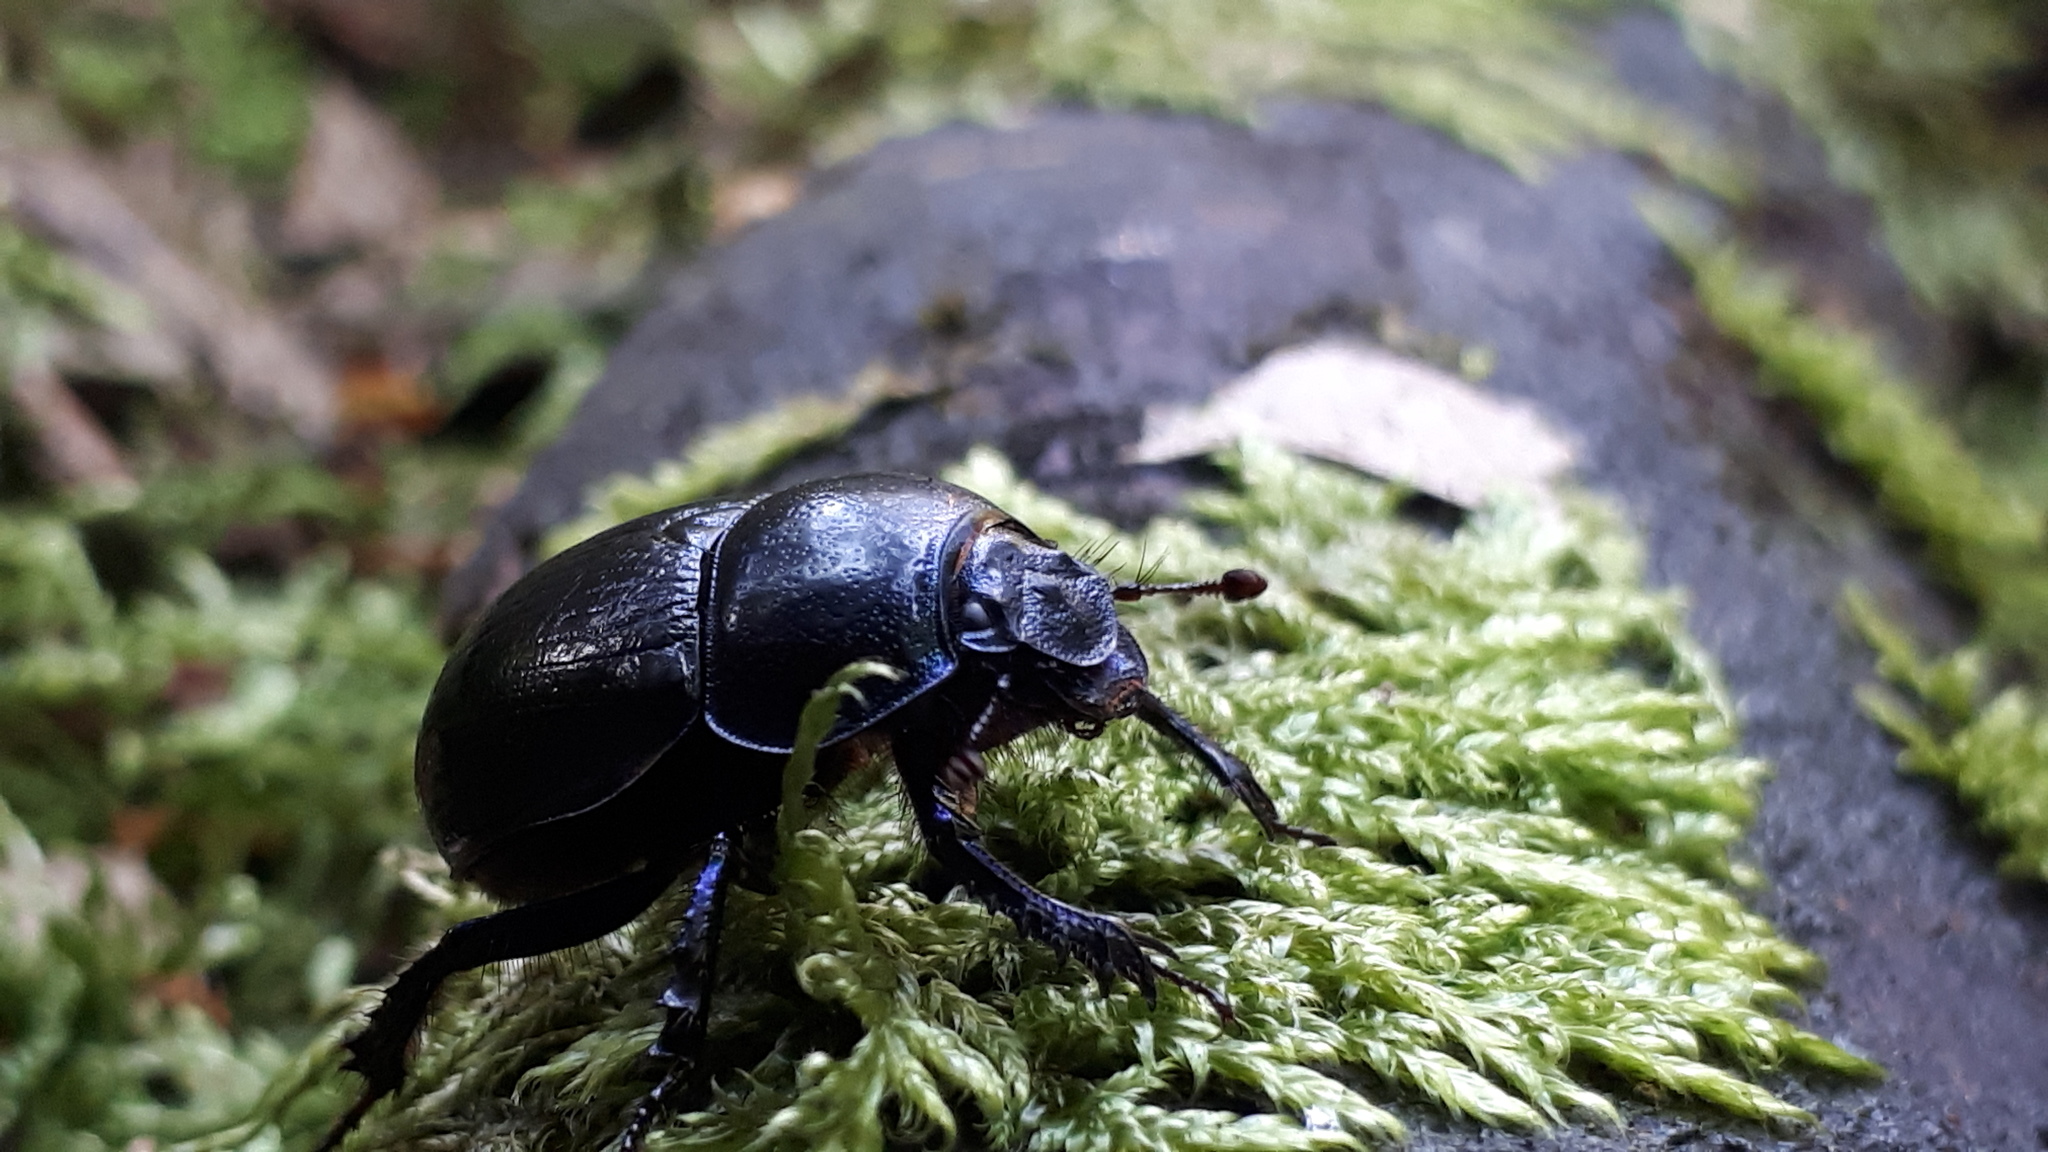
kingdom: Animalia
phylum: Arthropoda
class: Insecta
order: Coleoptera
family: Geotrupidae
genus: Anoplotrupes
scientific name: Anoplotrupes stercorosus
